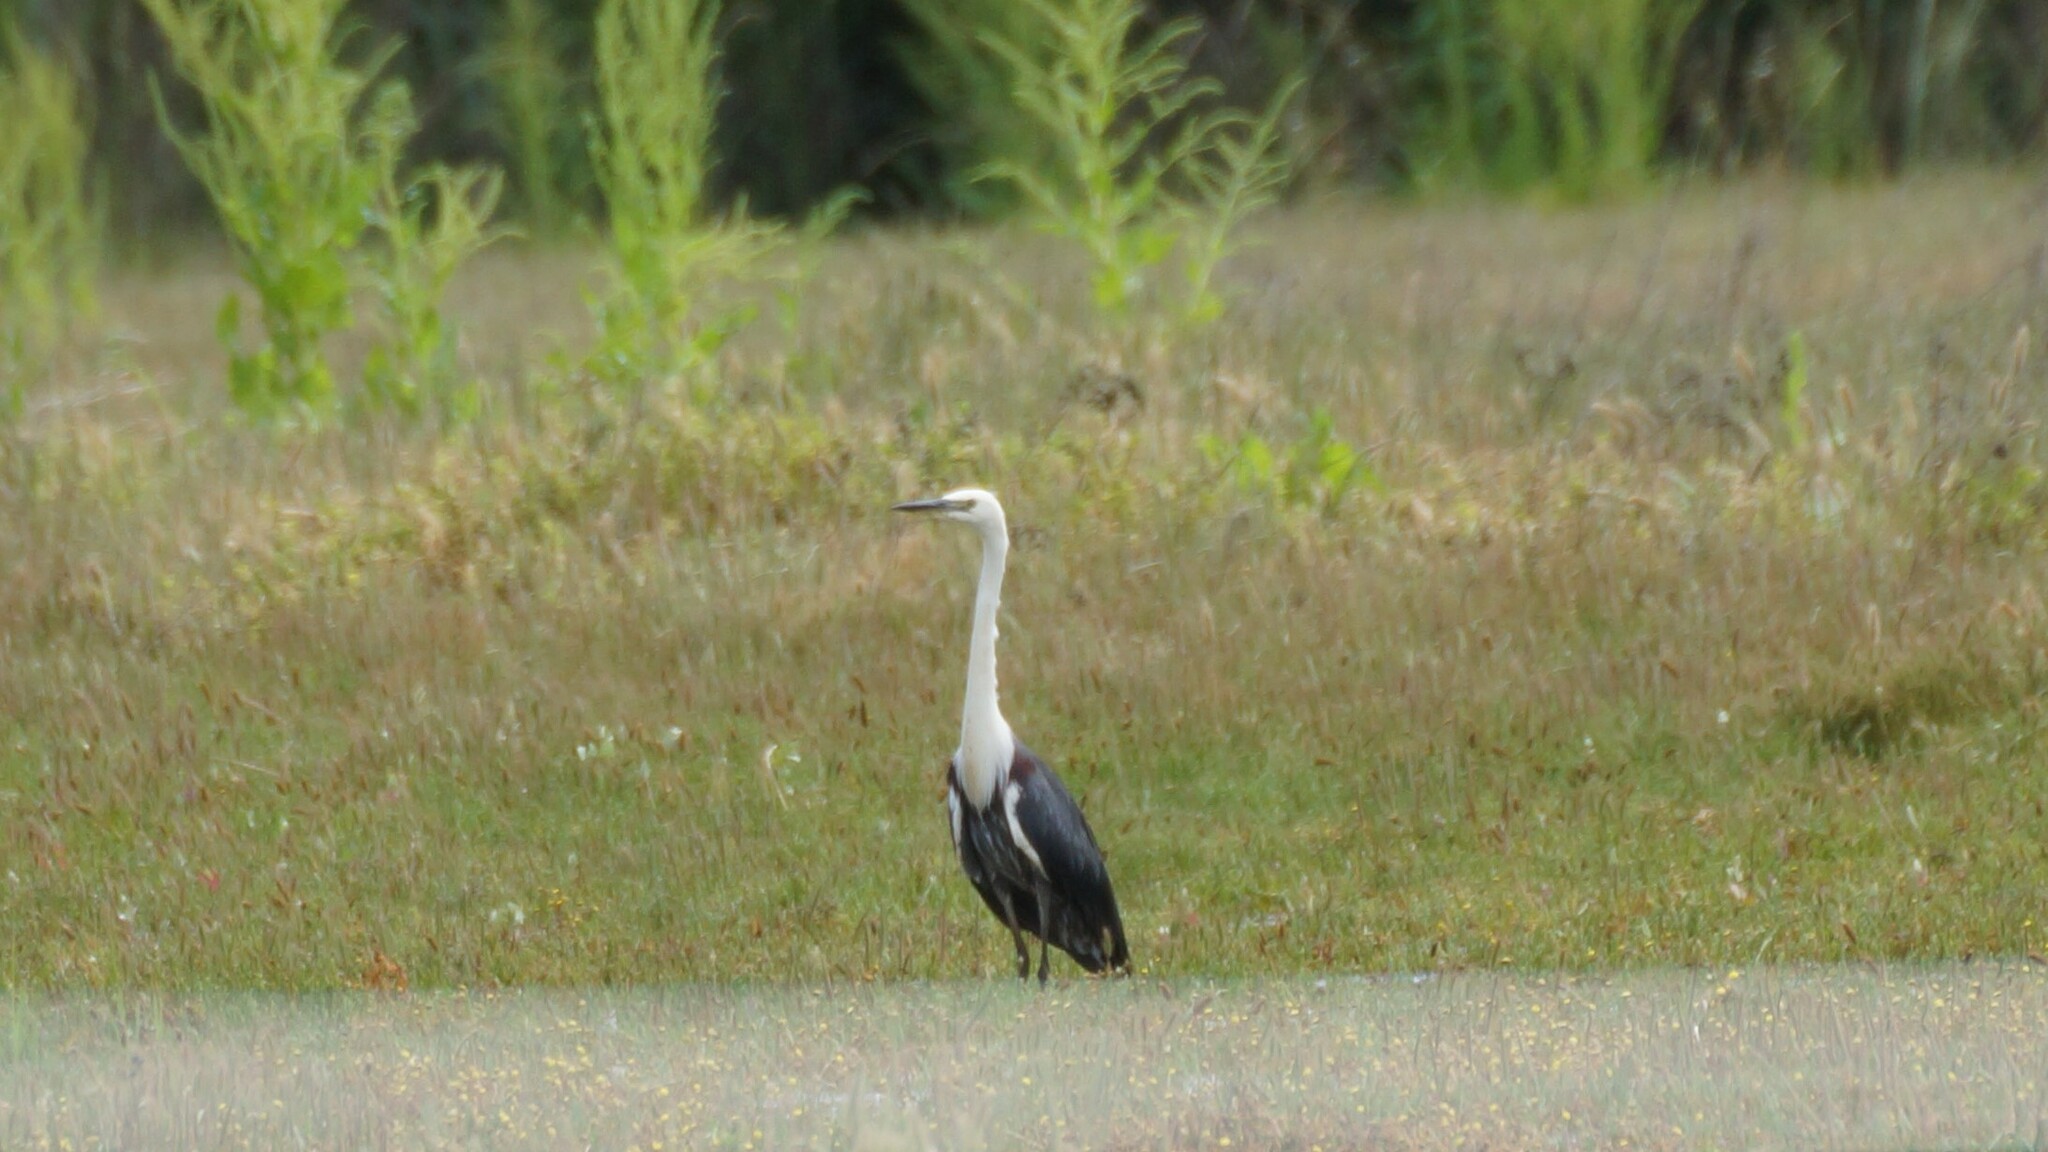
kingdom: Animalia
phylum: Chordata
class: Aves
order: Pelecaniformes
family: Ardeidae
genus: Ardea
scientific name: Ardea pacifica
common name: White-necked heron
